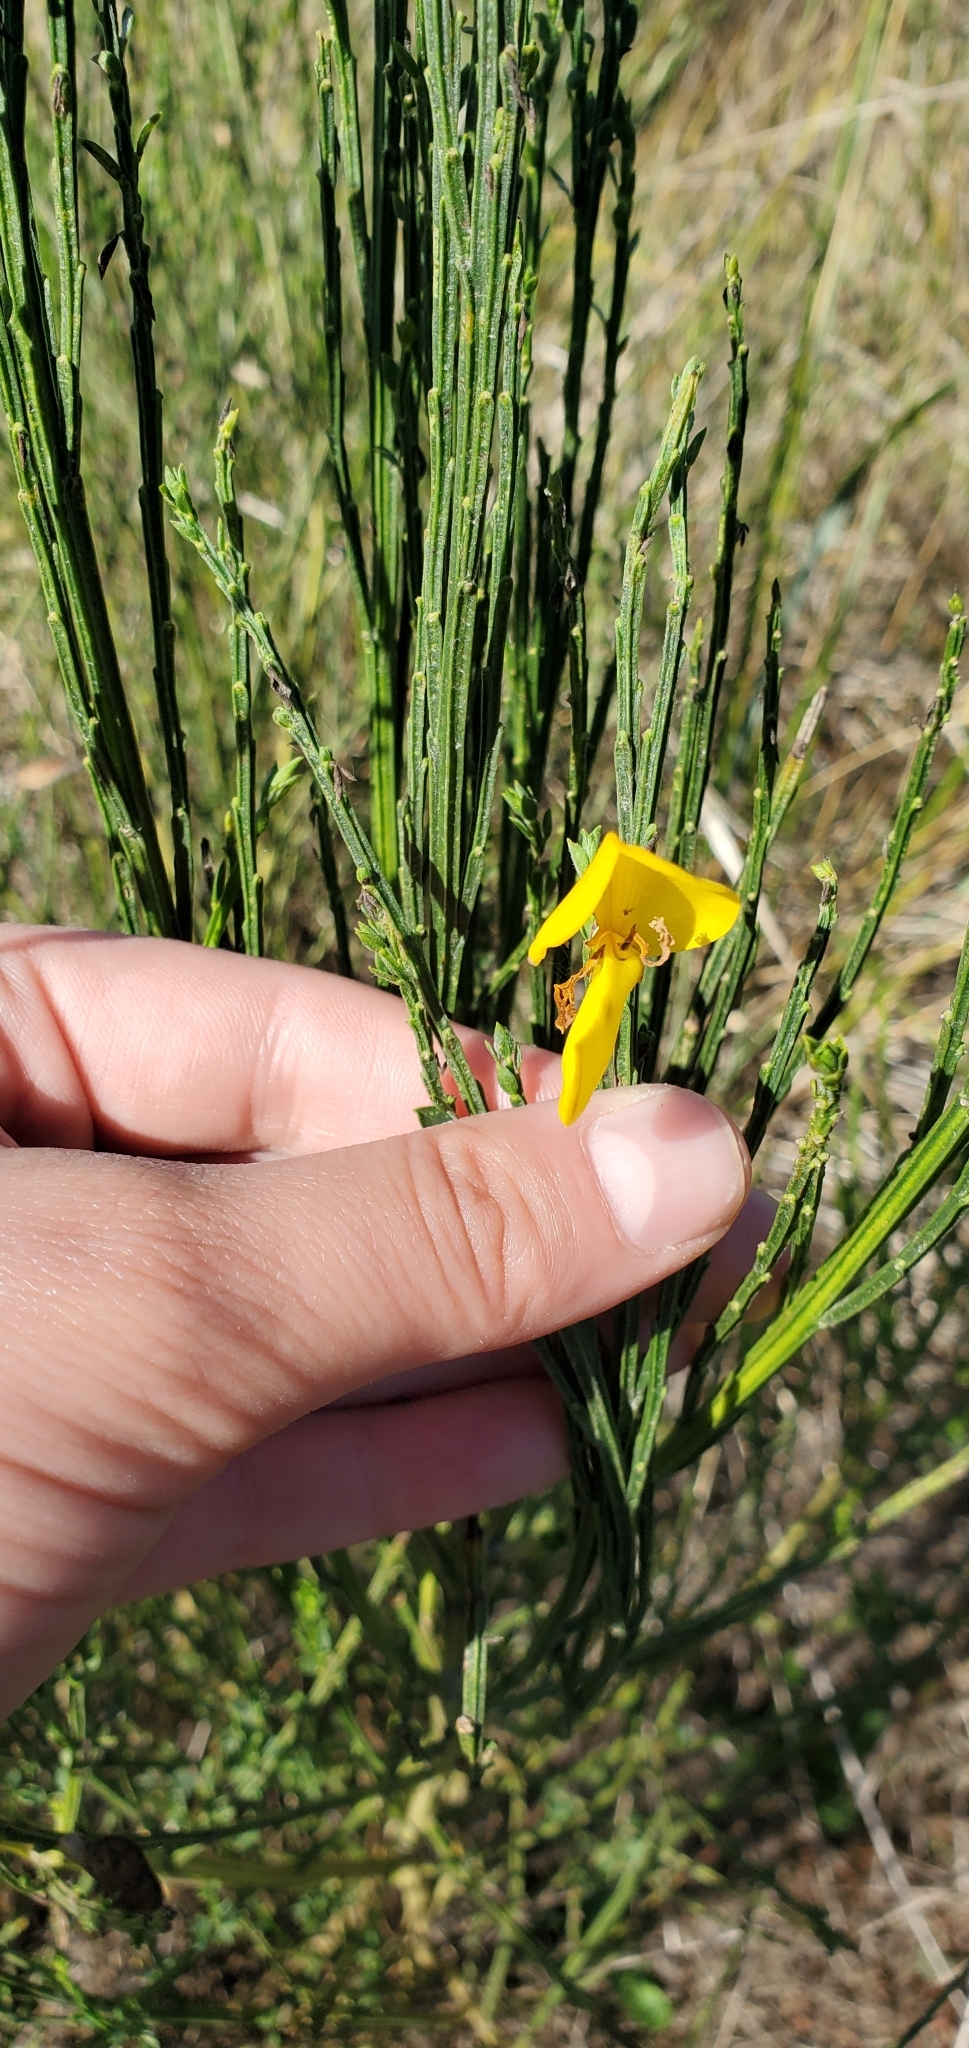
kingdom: Plantae
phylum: Tracheophyta
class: Magnoliopsida
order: Fabales
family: Fabaceae
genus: Cytisus
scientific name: Cytisus scoparius
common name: Scotch broom
